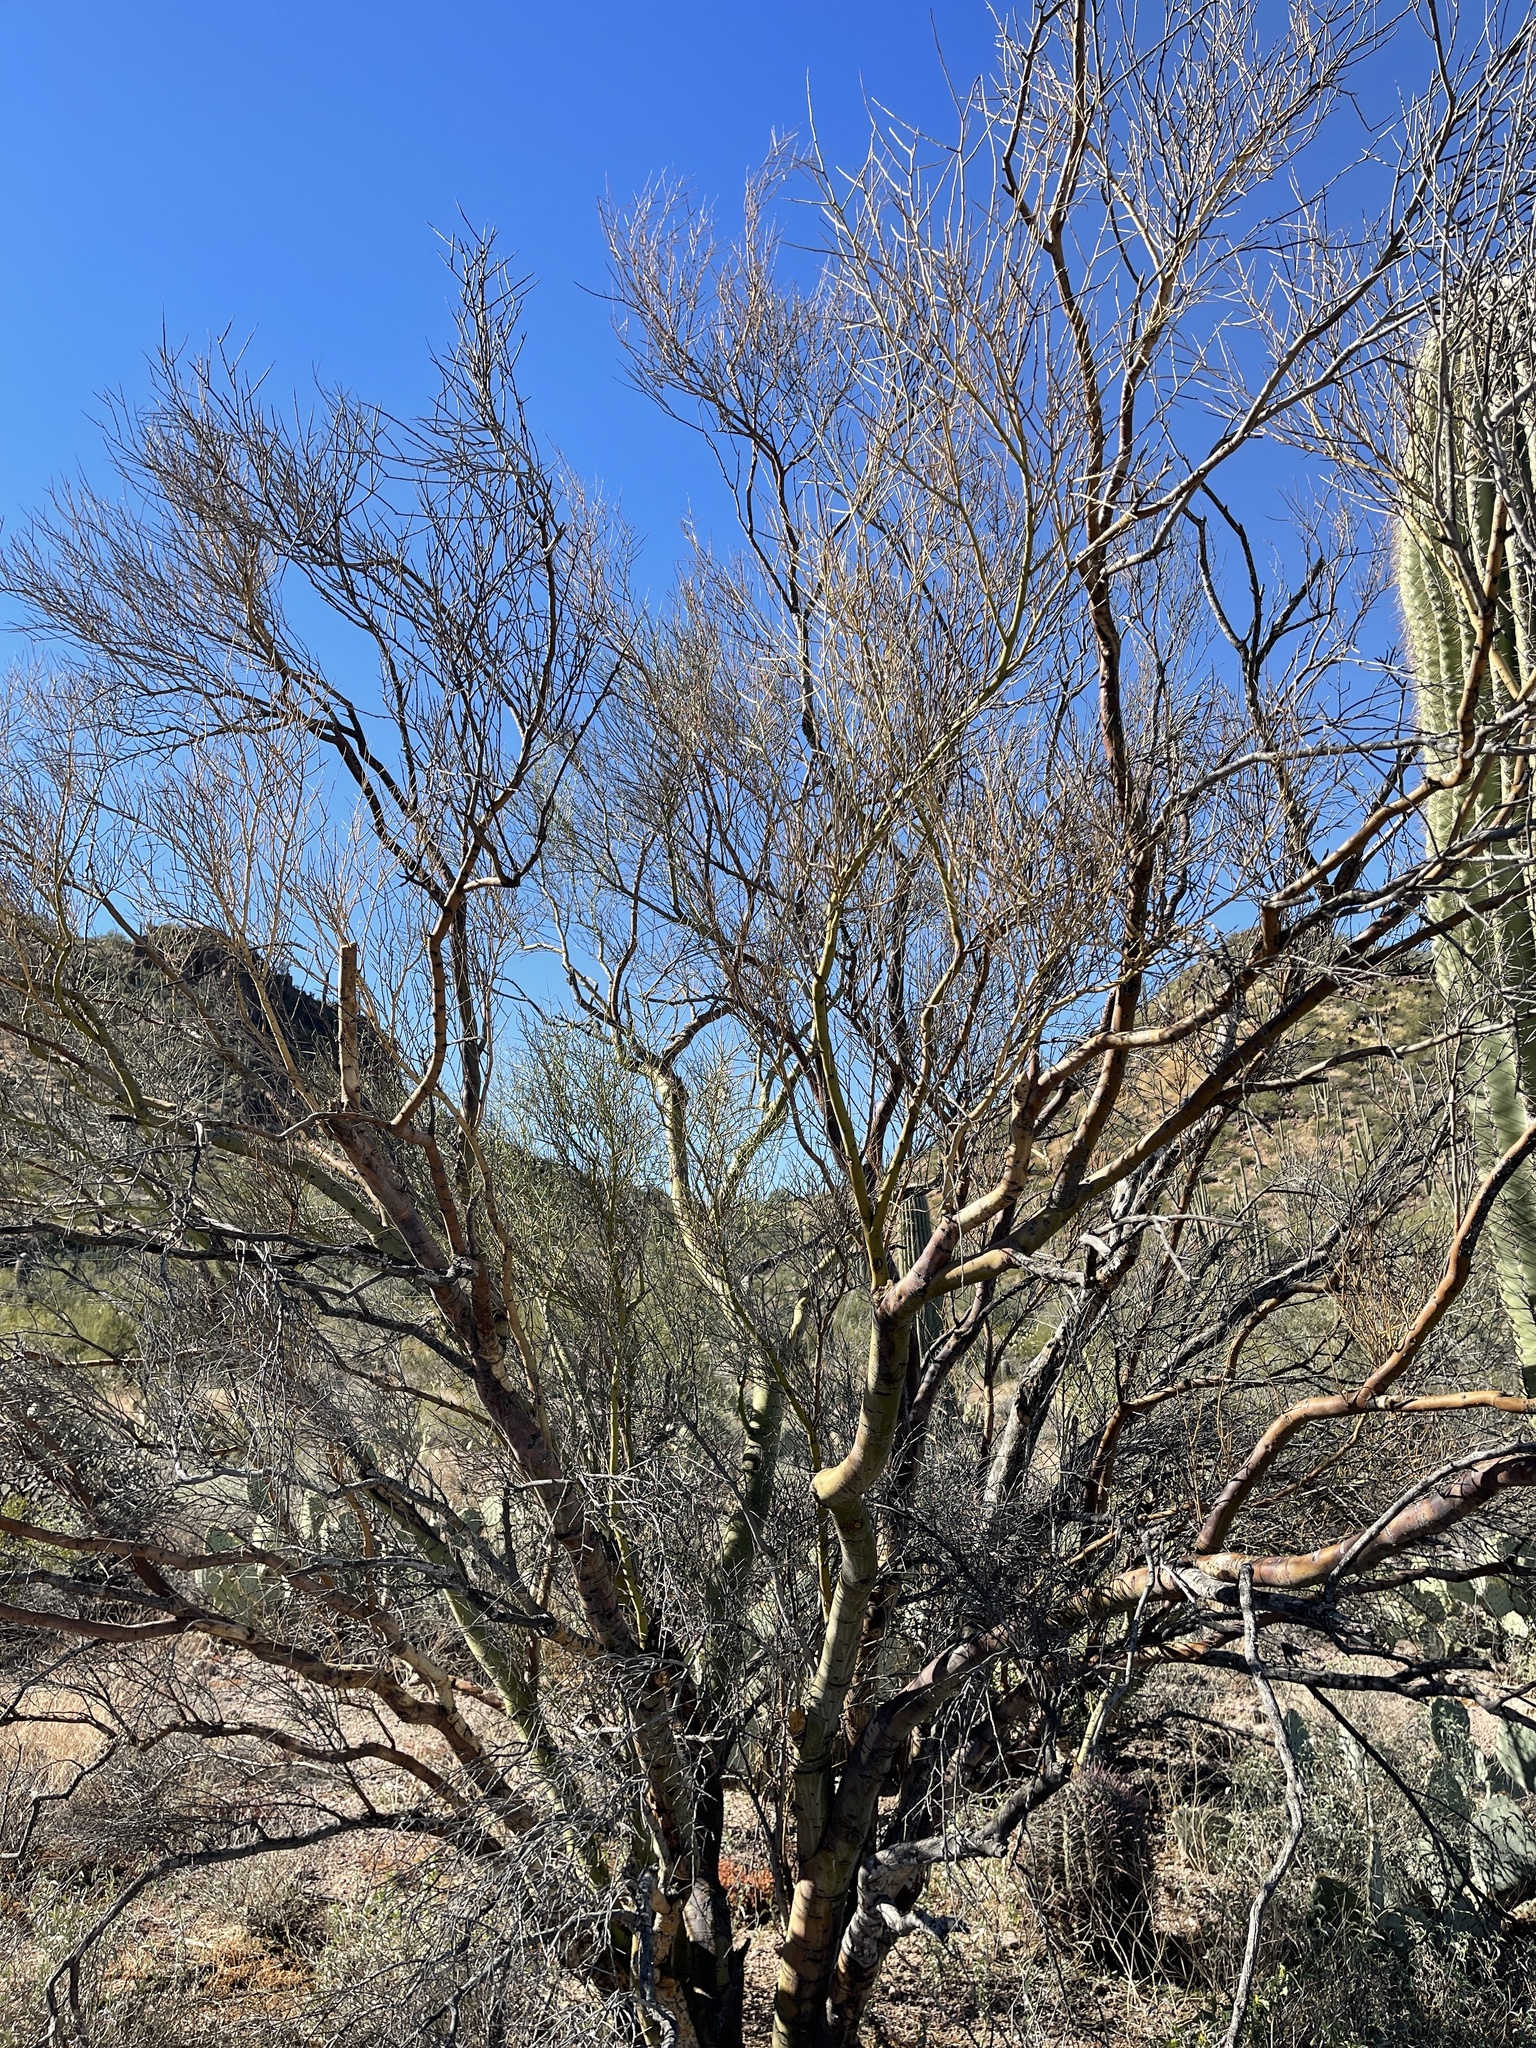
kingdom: Plantae
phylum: Tracheophyta
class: Magnoliopsida
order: Fabales
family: Fabaceae
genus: Parkinsonia
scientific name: Parkinsonia microphylla
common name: Yellow paloverde
